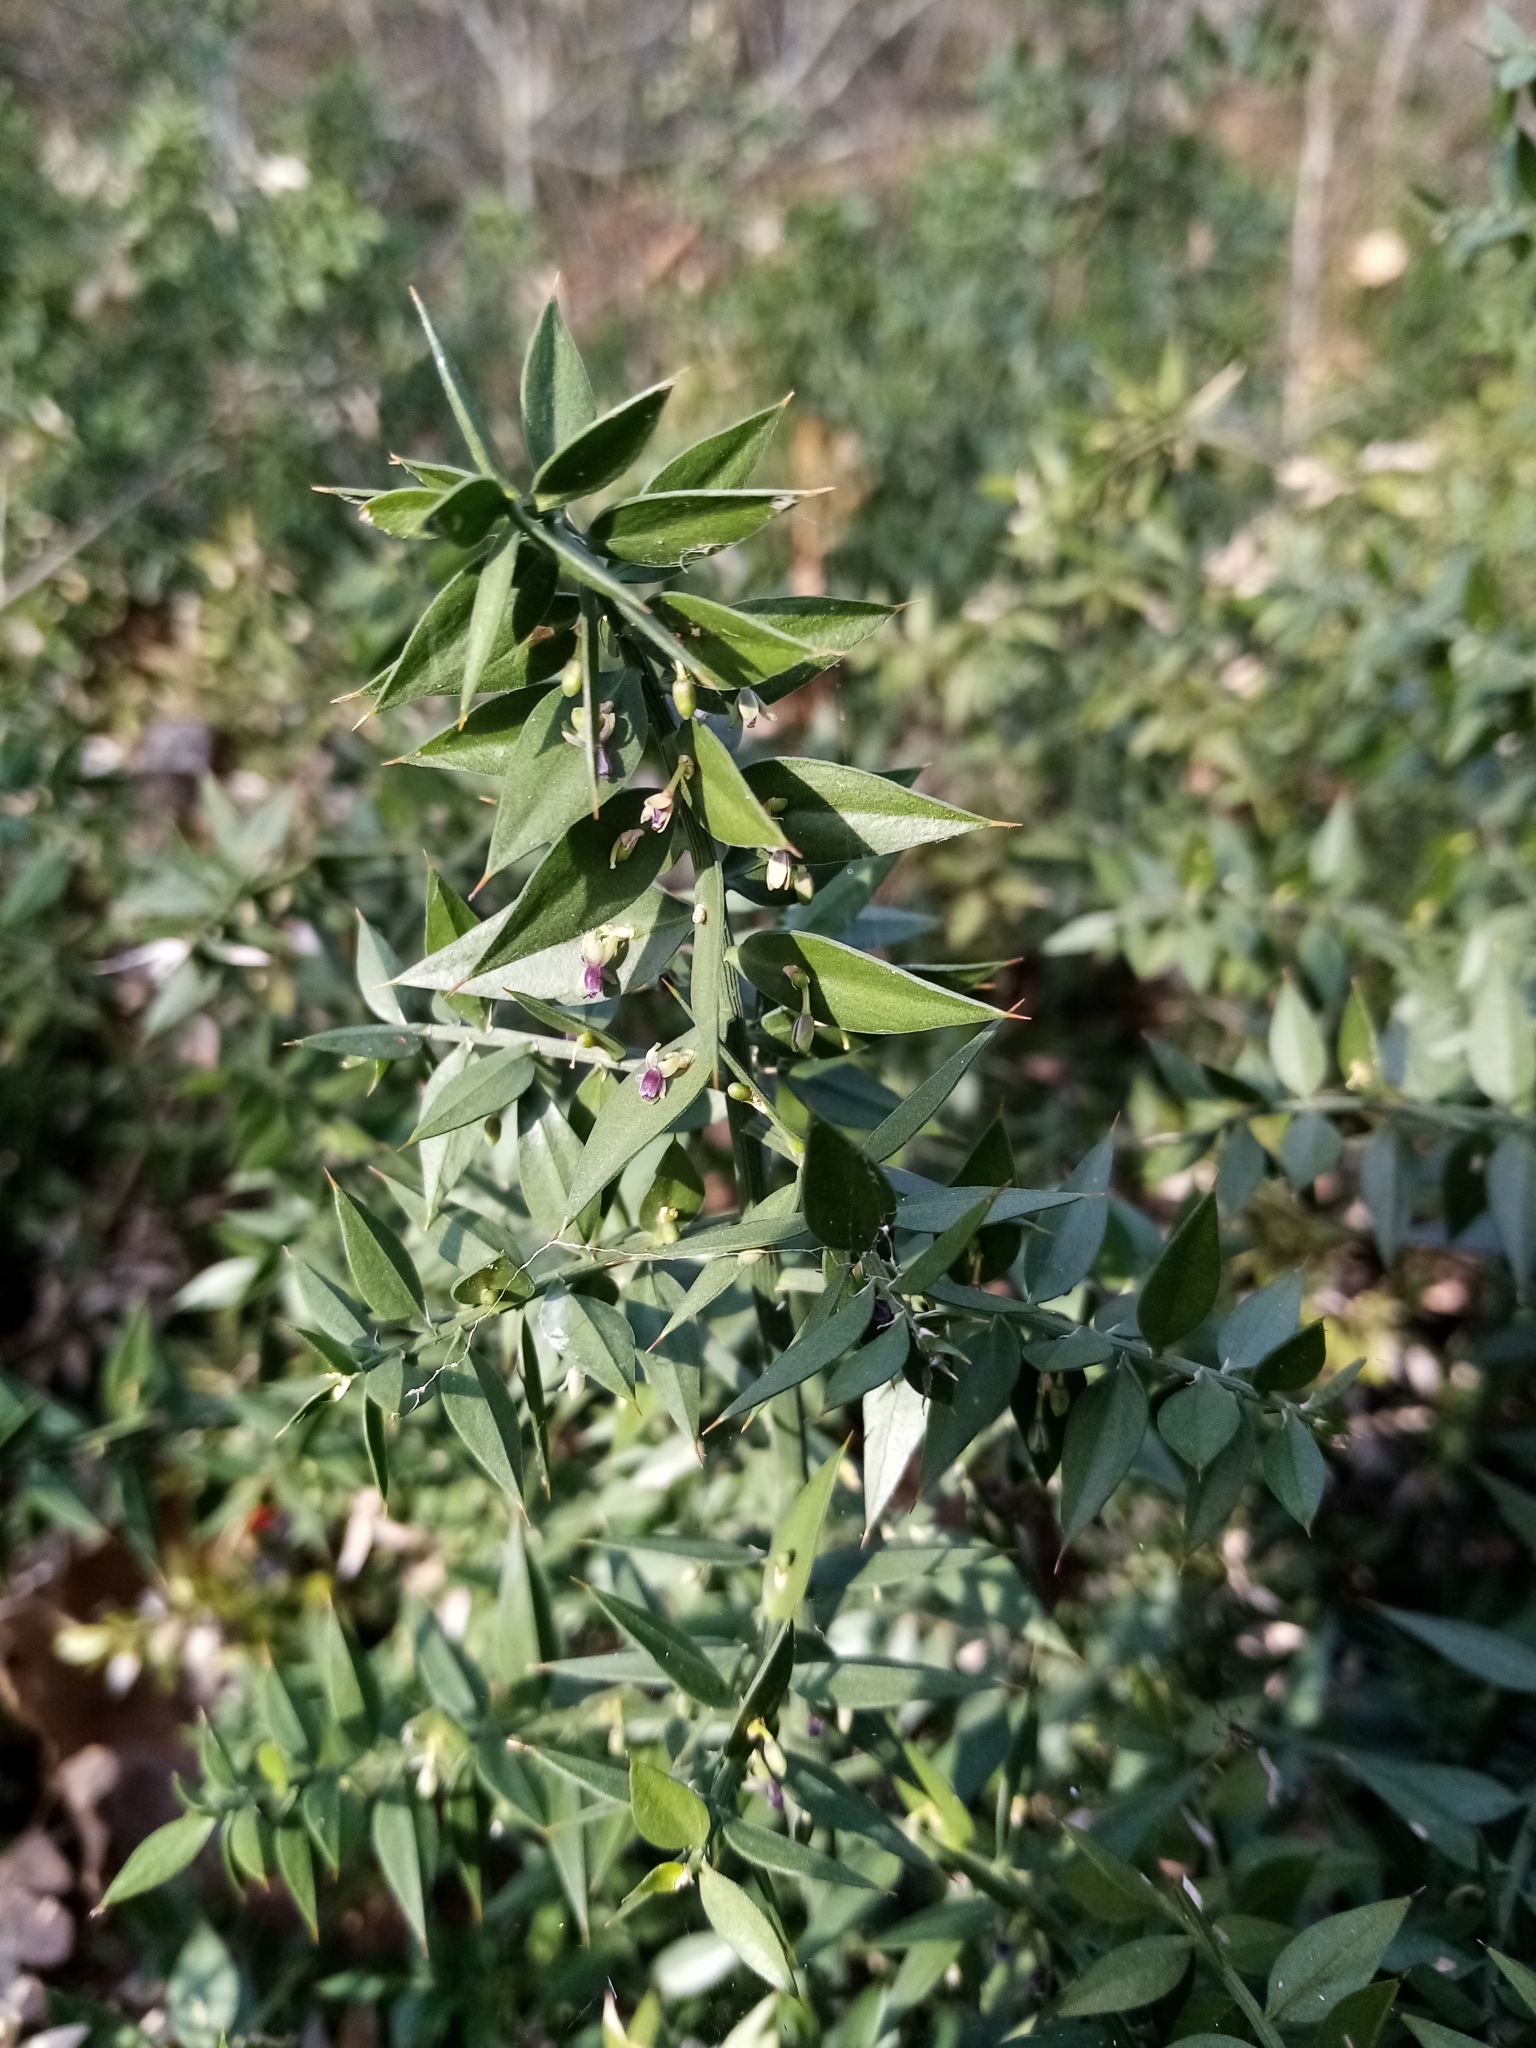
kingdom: Plantae
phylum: Tracheophyta
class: Liliopsida
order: Asparagales
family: Asparagaceae
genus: Ruscus
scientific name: Ruscus aculeatus
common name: Butcher's-broom
